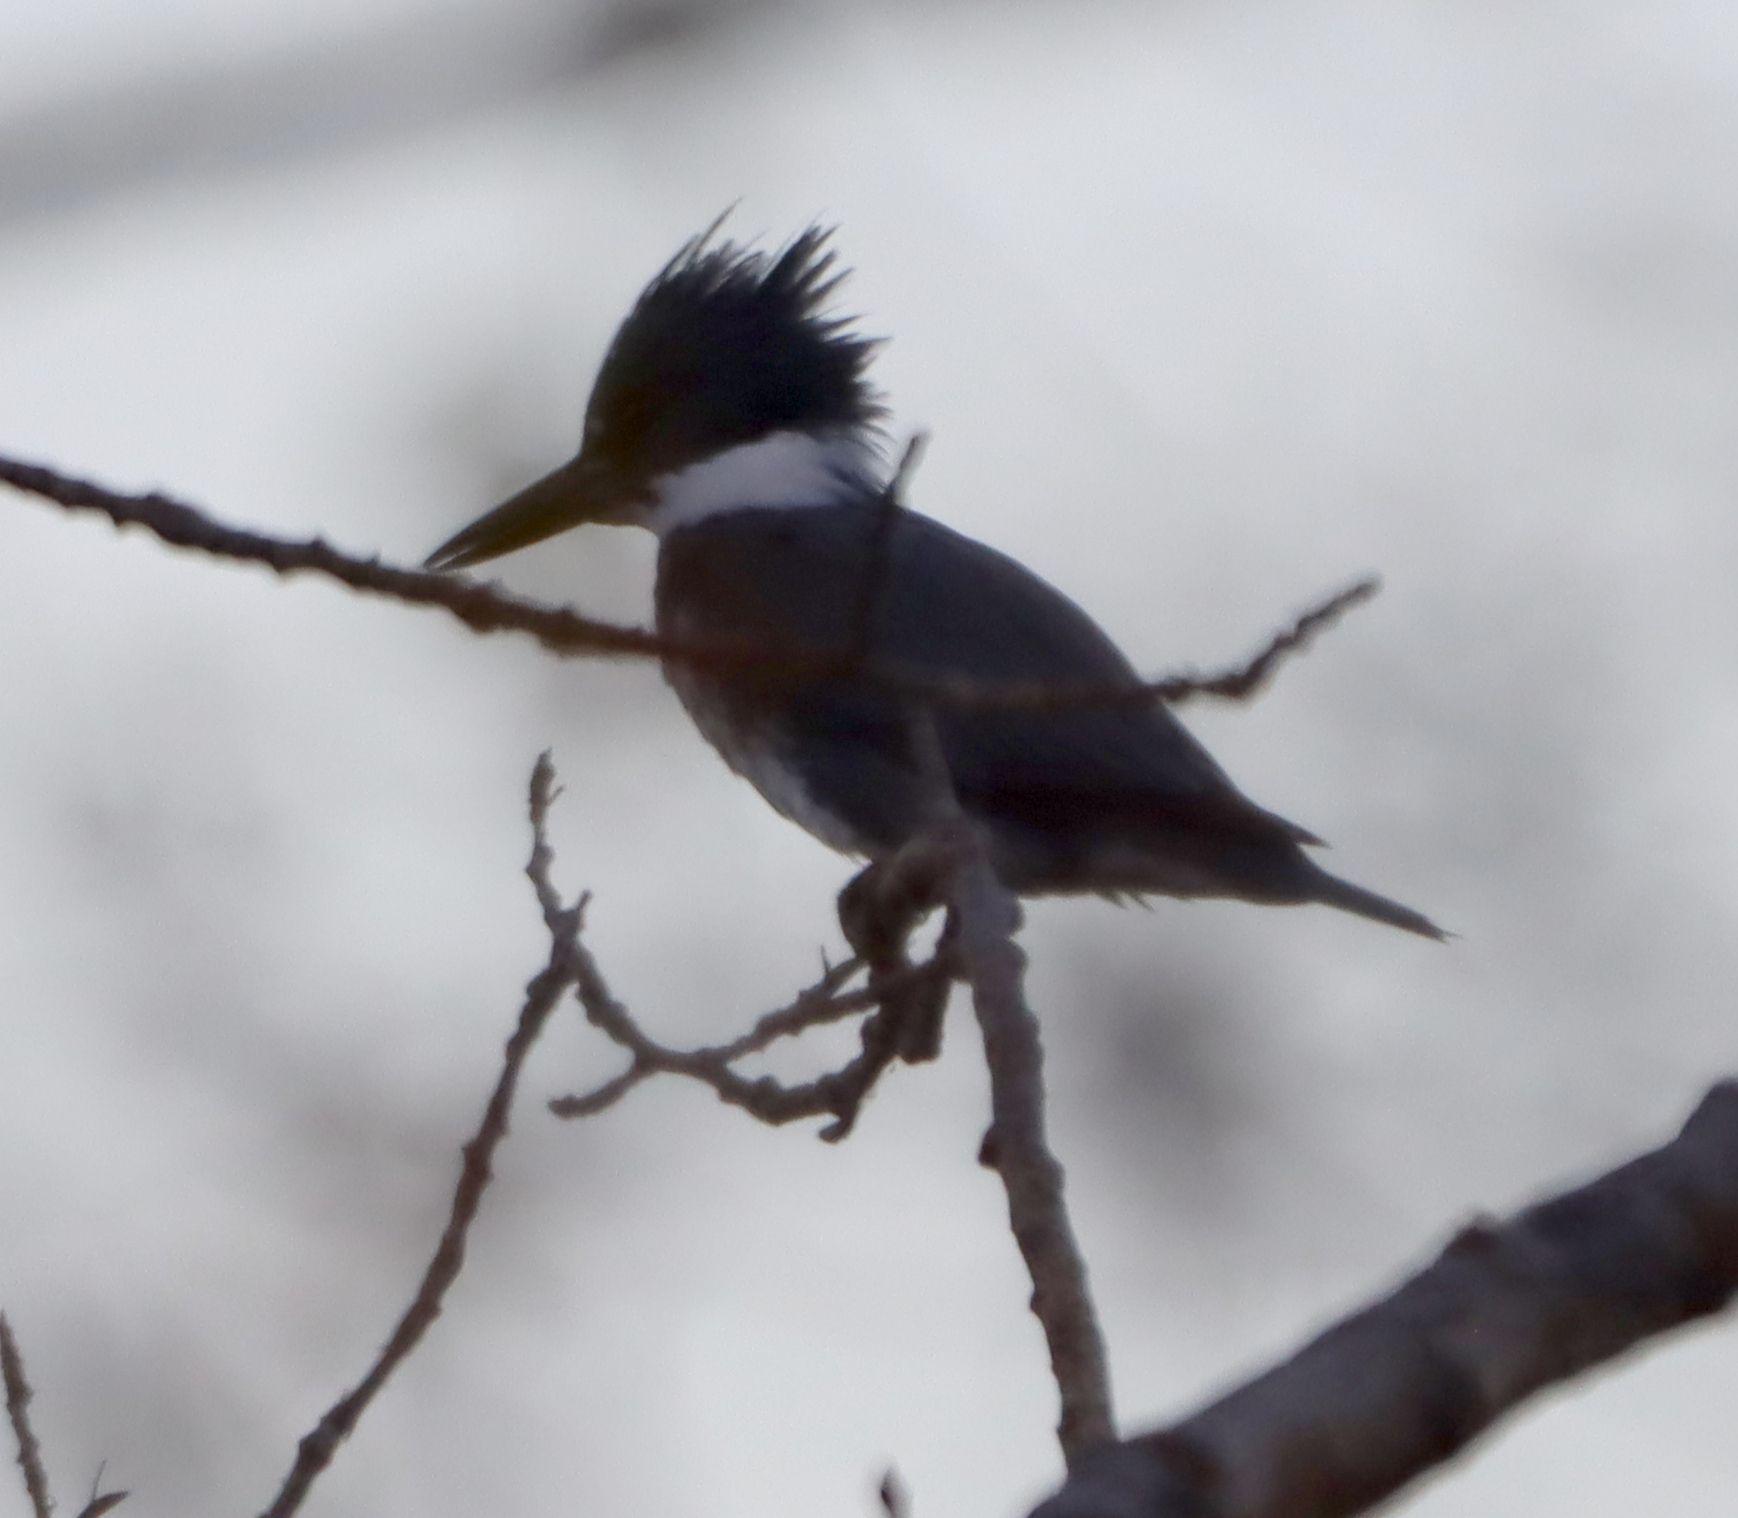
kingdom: Animalia
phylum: Chordata
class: Aves
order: Coraciiformes
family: Alcedinidae
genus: Megaceryle
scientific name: Megaceryle alcyon
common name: Belted kingfisher
